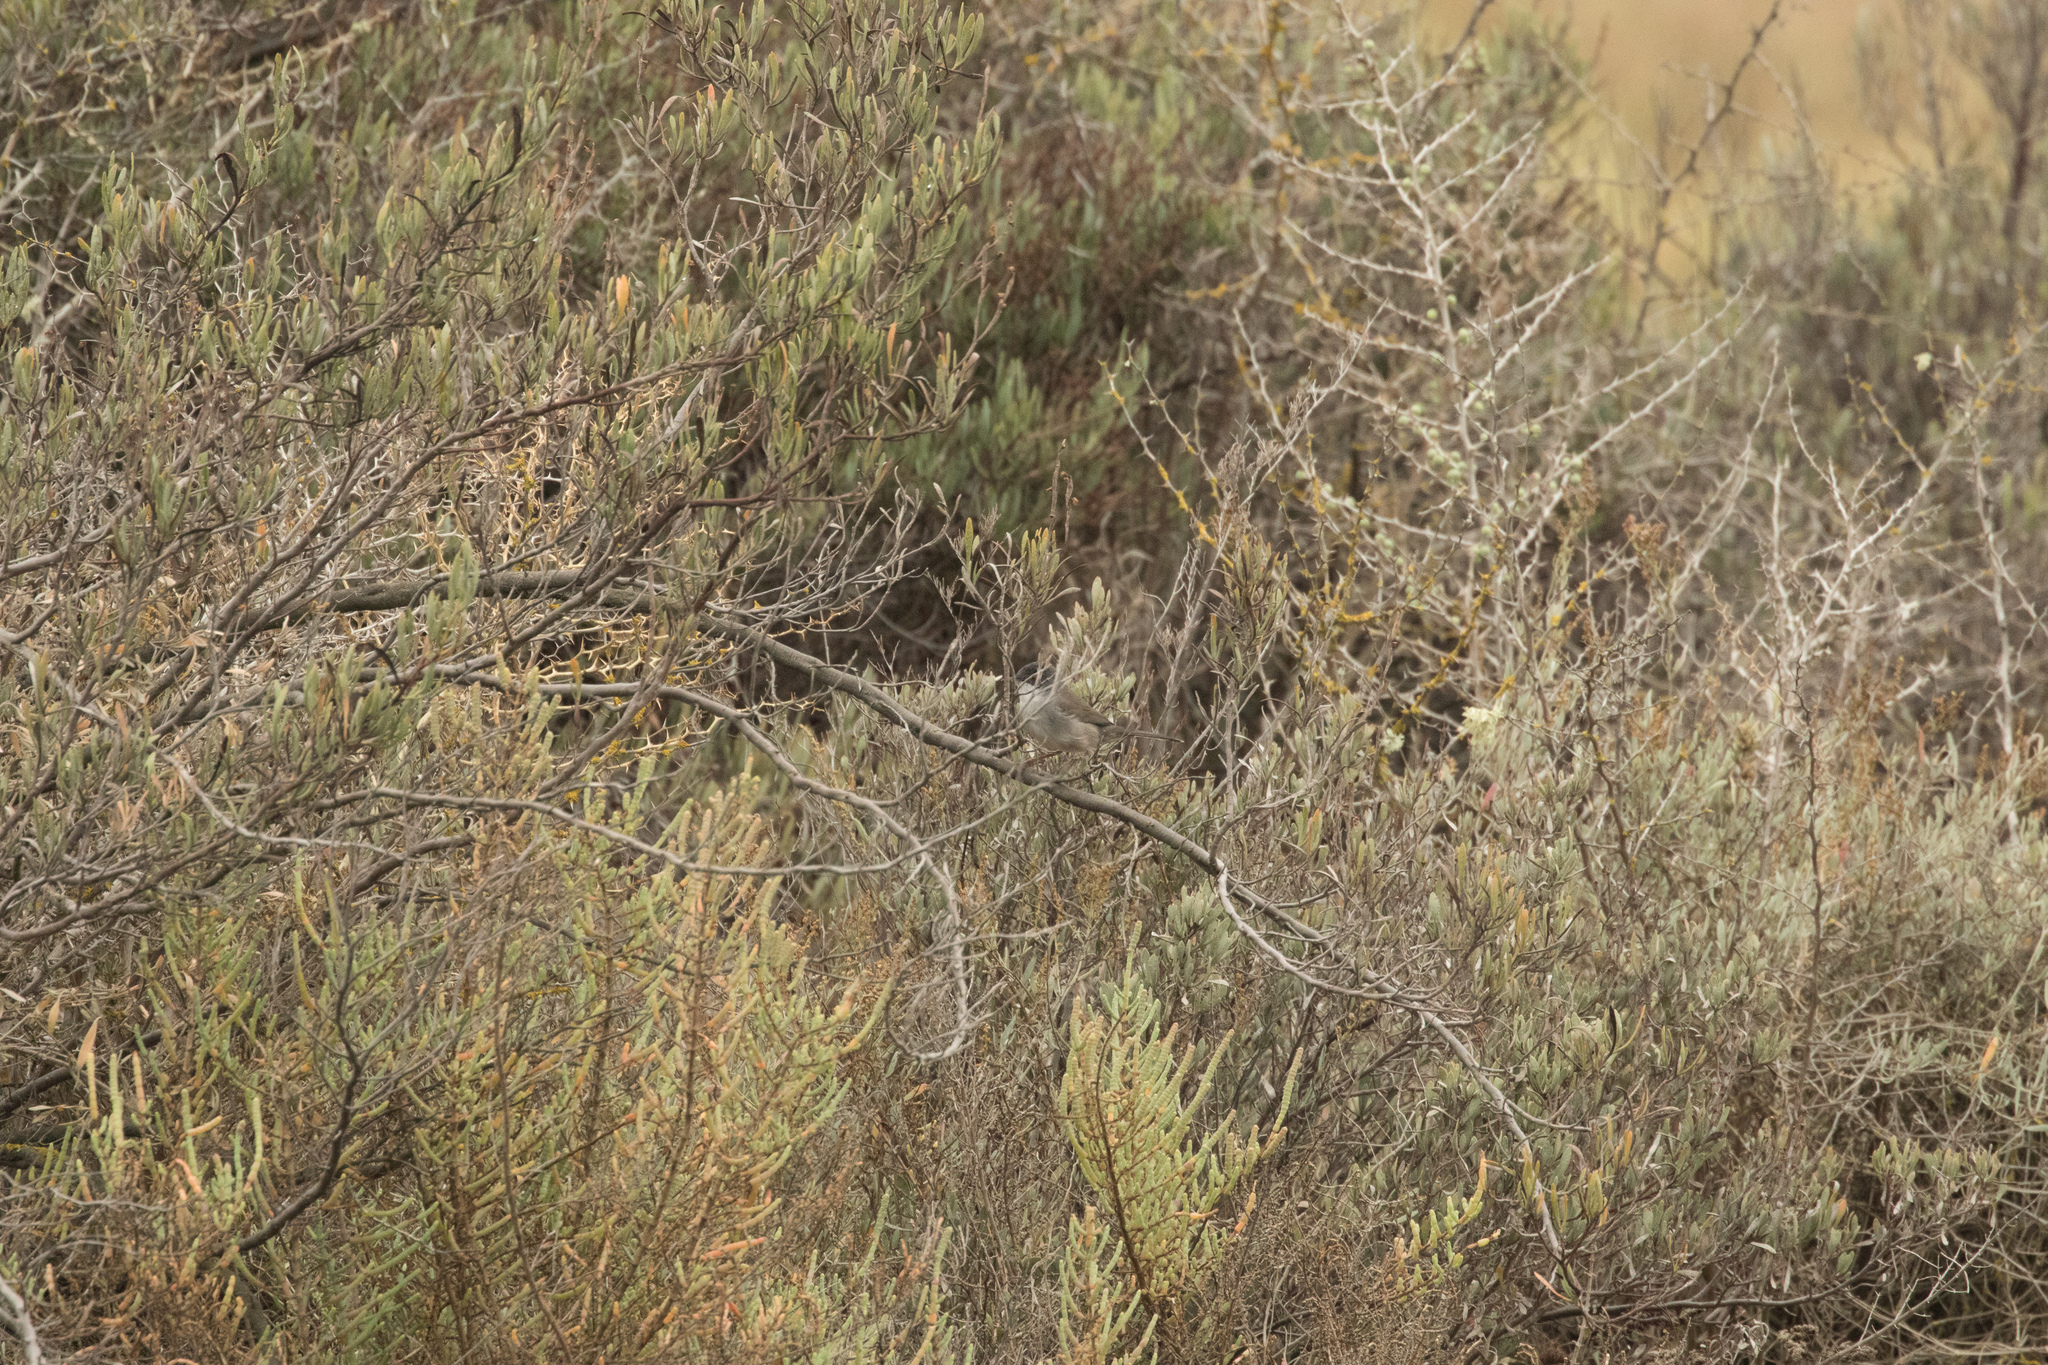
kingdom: Animalia
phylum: Chordata
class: Aves
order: Passeriformes
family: Sylviidae
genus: Curruca
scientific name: Curruca melanocephala
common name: Sardinian warbler
